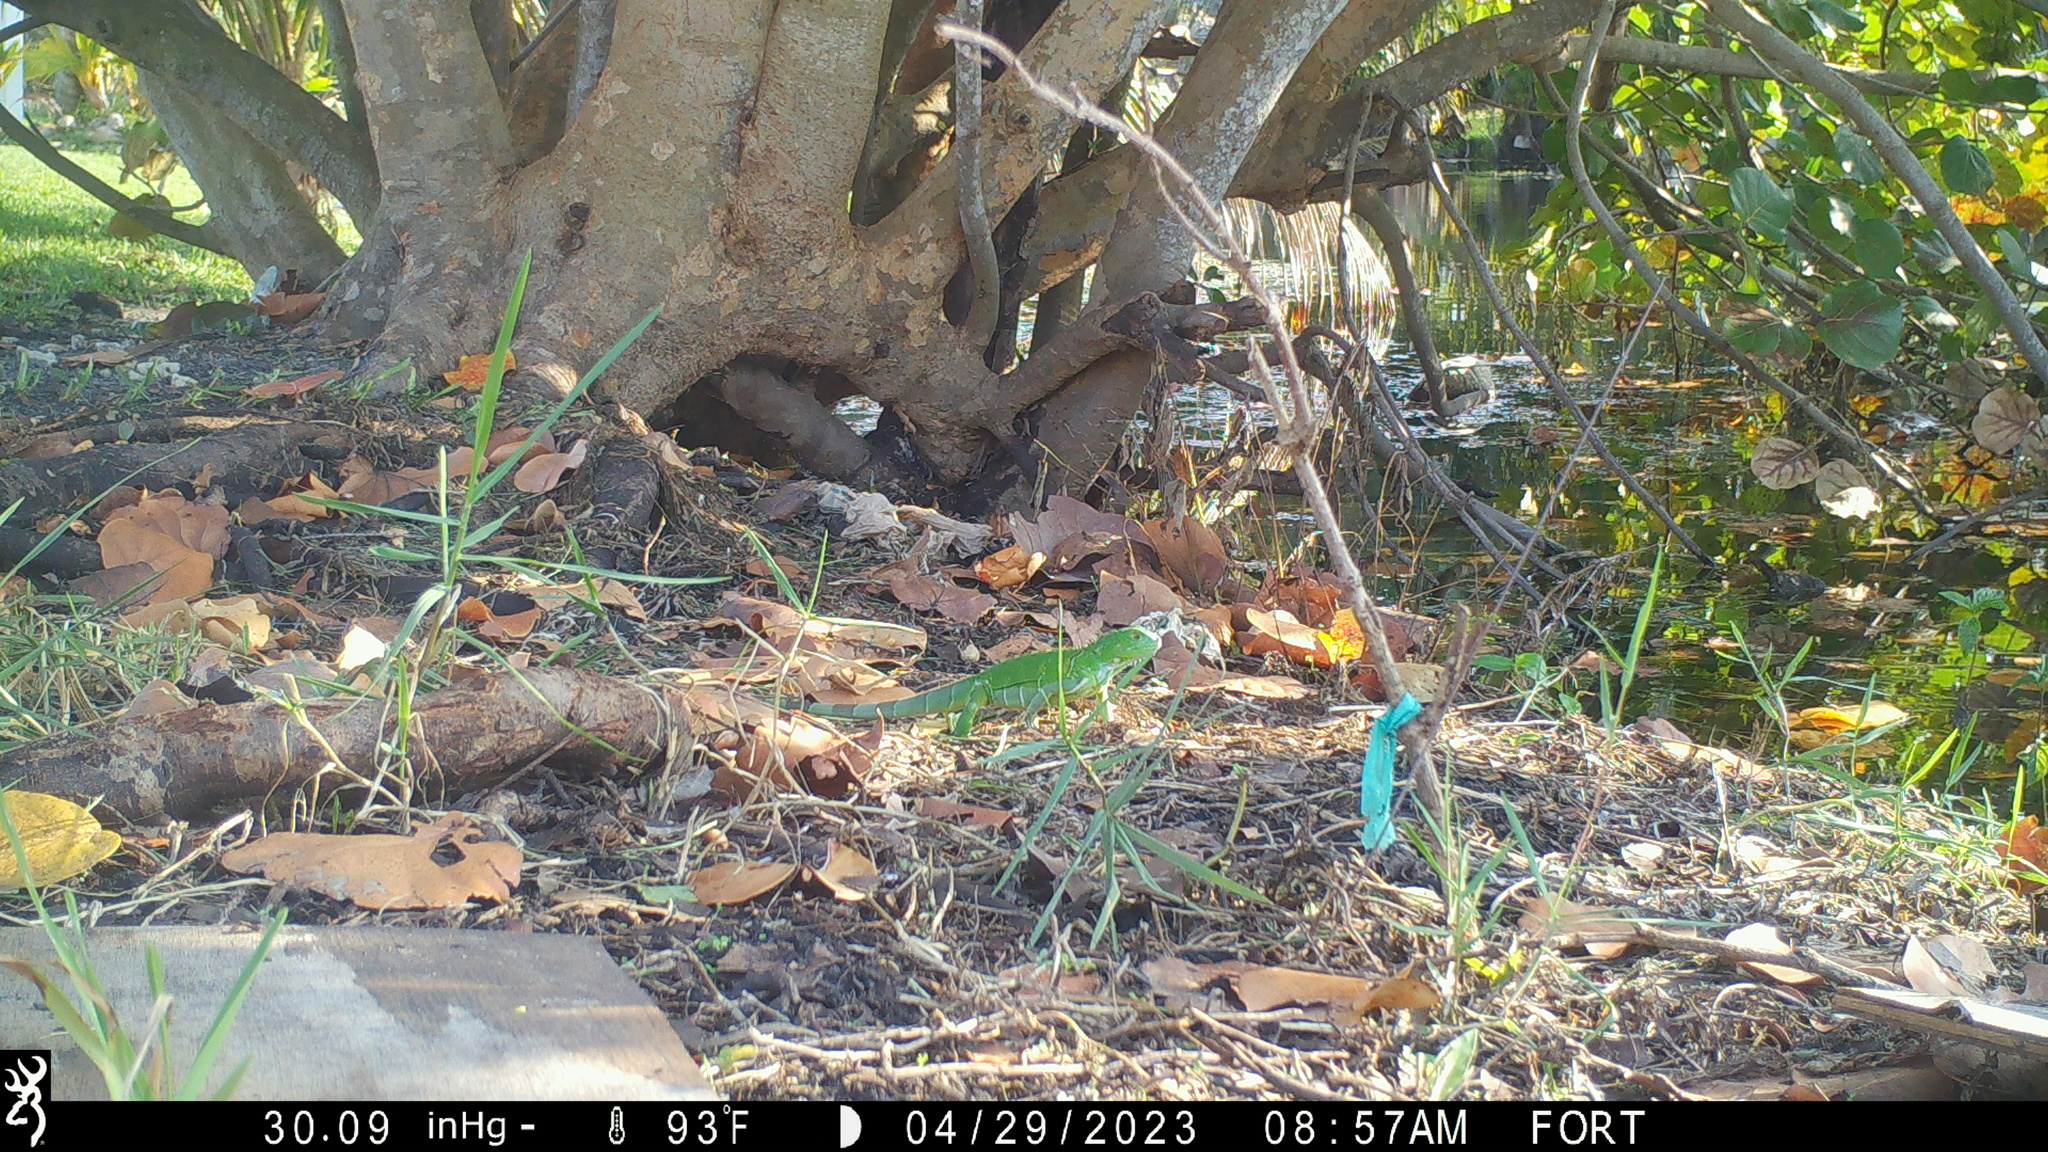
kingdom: Animalia
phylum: Chordata
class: Squamata
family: Iguanidae
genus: Iguana
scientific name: Iguana iguana
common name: Green iguana
